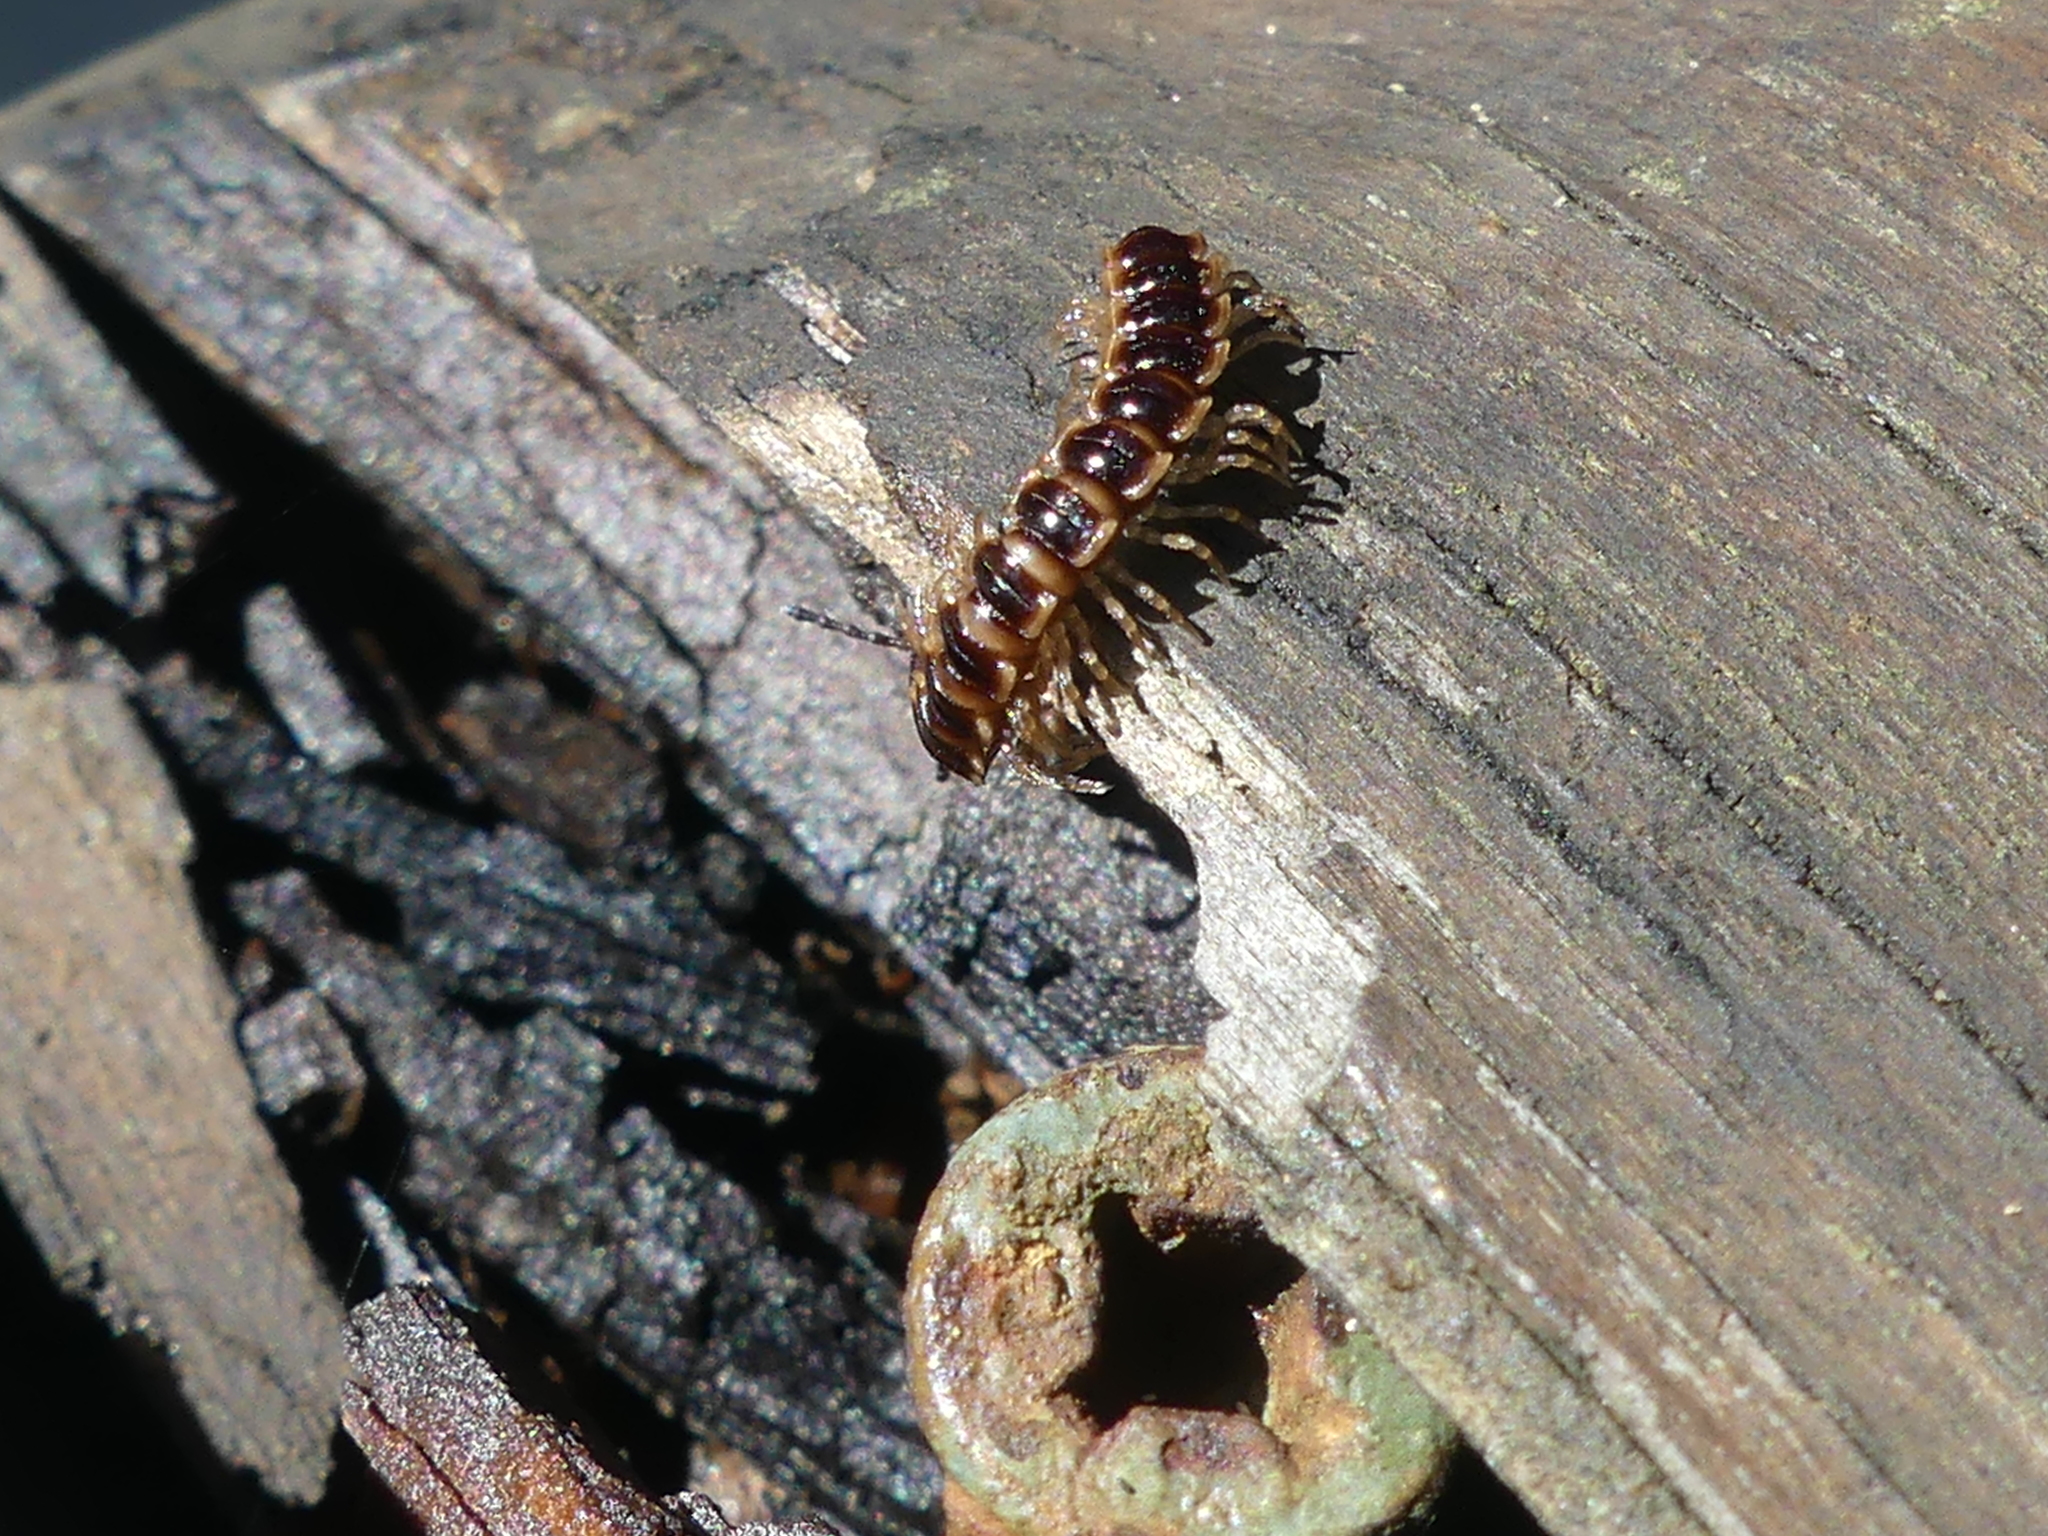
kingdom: Animalia
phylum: Arthropoda
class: Diplopoda
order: Polydesmida
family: Paradoxosomatidae
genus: Oxidus
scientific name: Oxidus gracilis
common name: Greenhouse millipede
